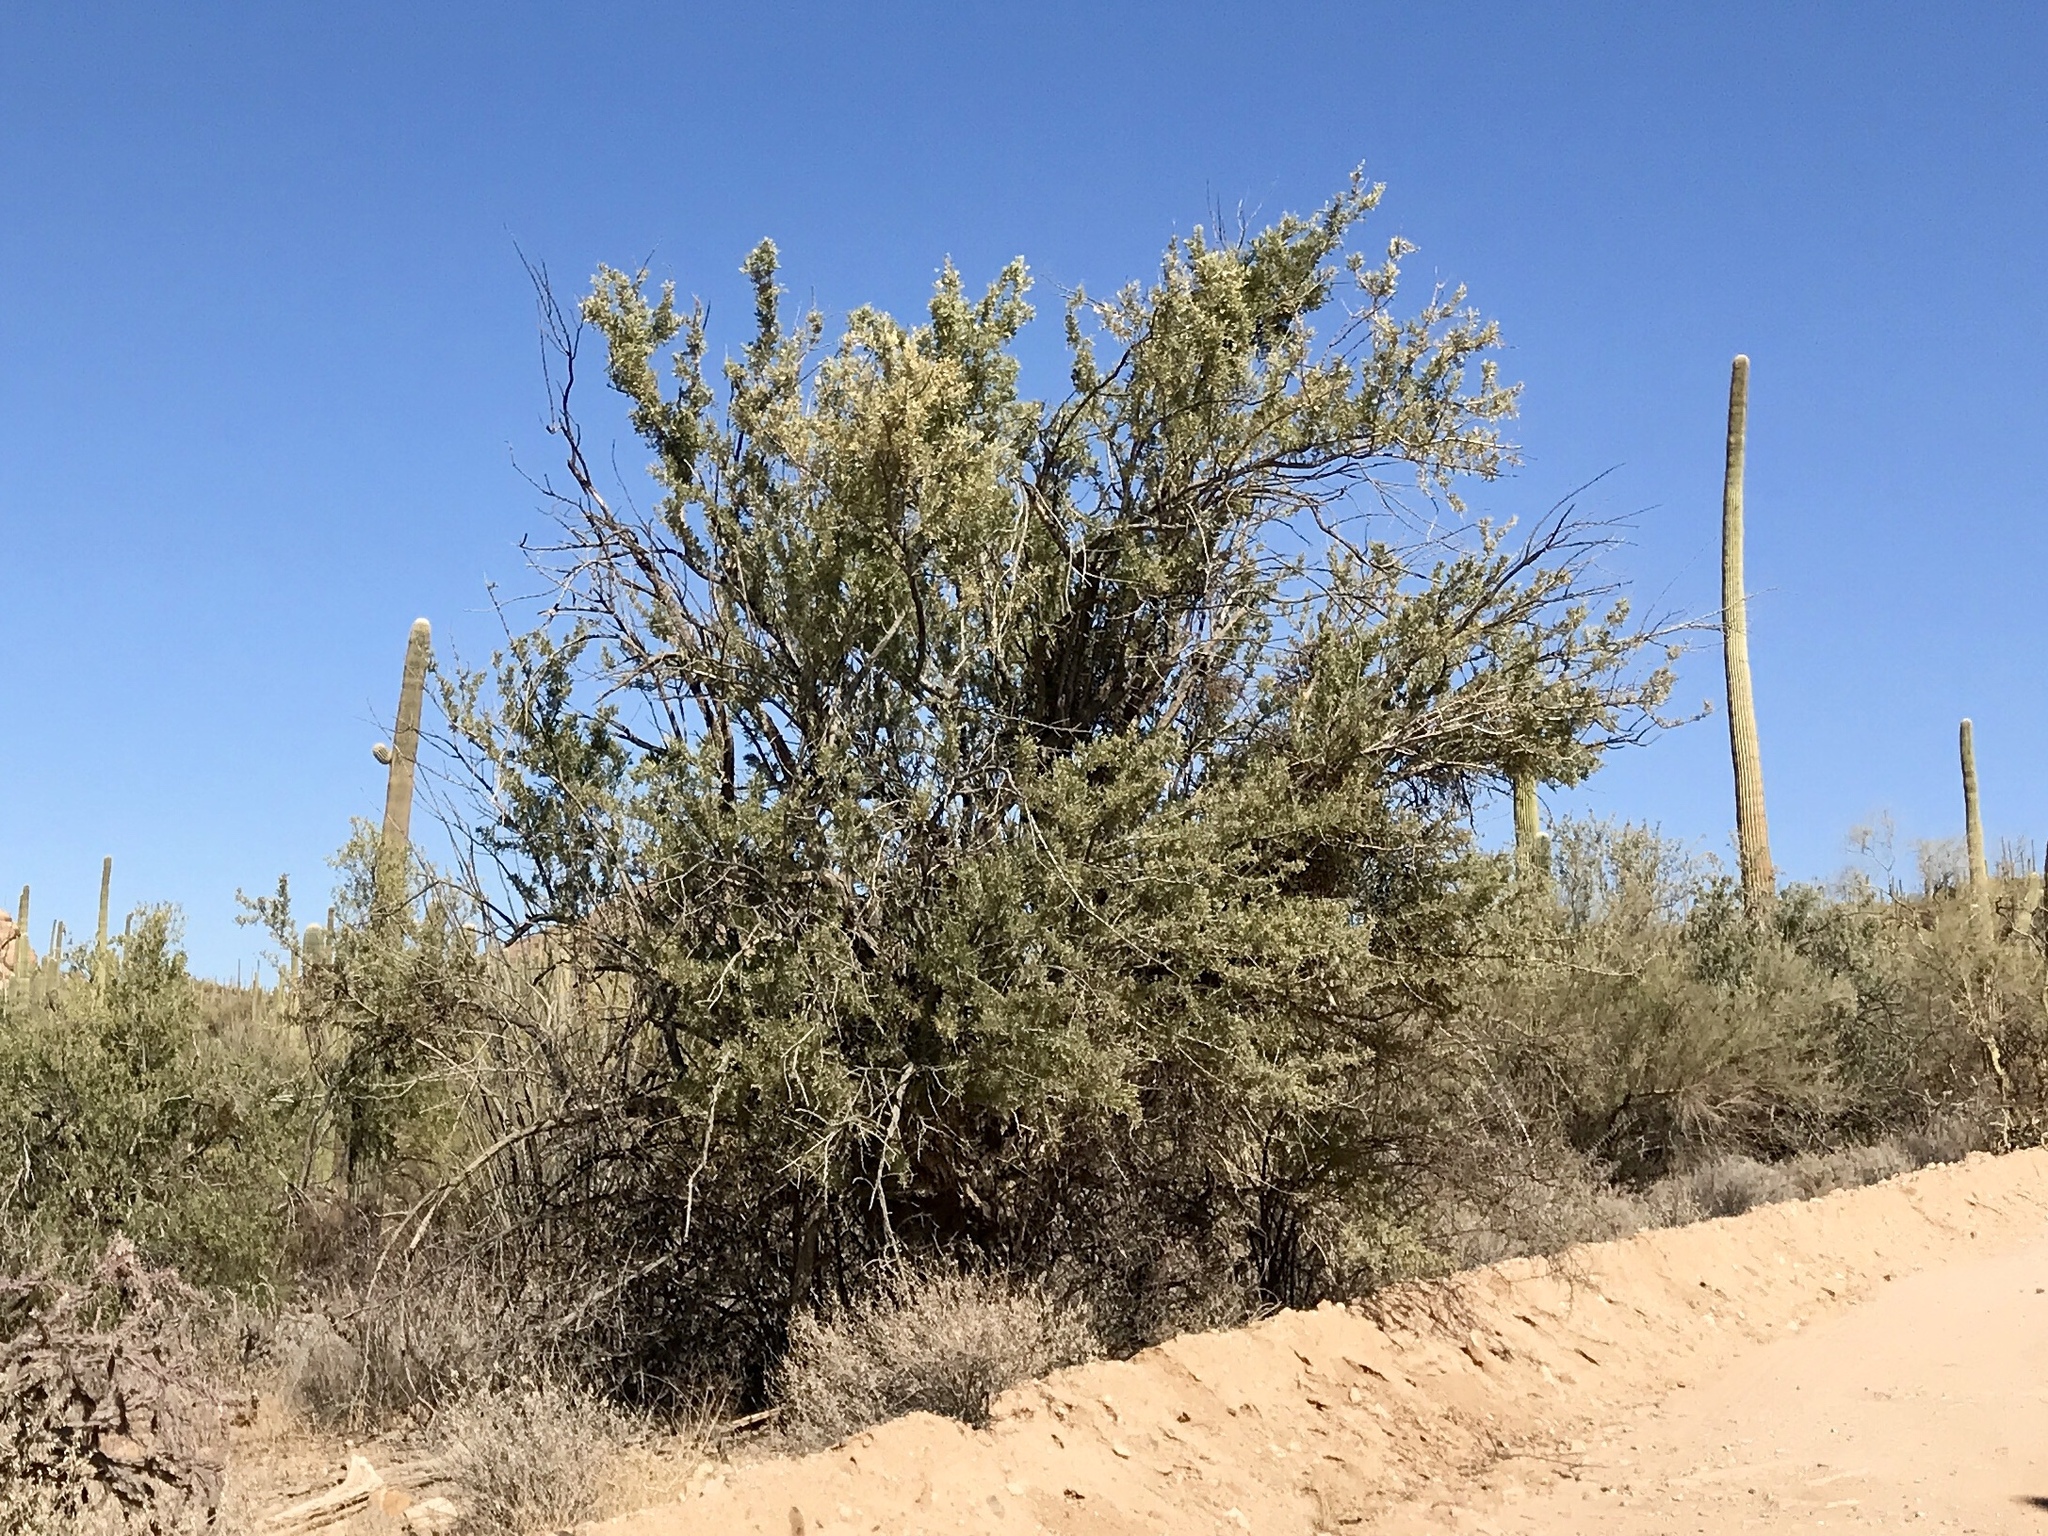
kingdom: Plantae
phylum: Tracheophyta
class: Magnoliopsida
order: Fabales
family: Fabaceae
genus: Olneya
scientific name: Olneya tesota
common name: Desert ironwood
